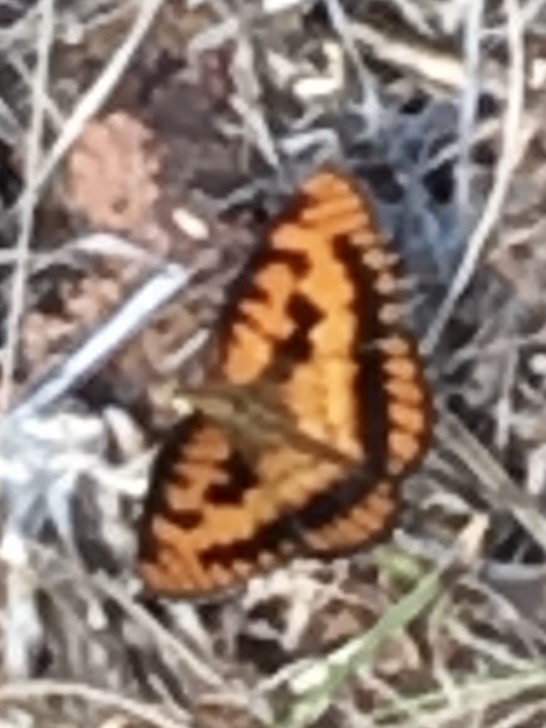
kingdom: Animalia
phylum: Arthropoda
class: Insecta
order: Lepidoptera
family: Nymphalidae
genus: Byblia
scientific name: Byblia ilithyia
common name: Spotted joker
